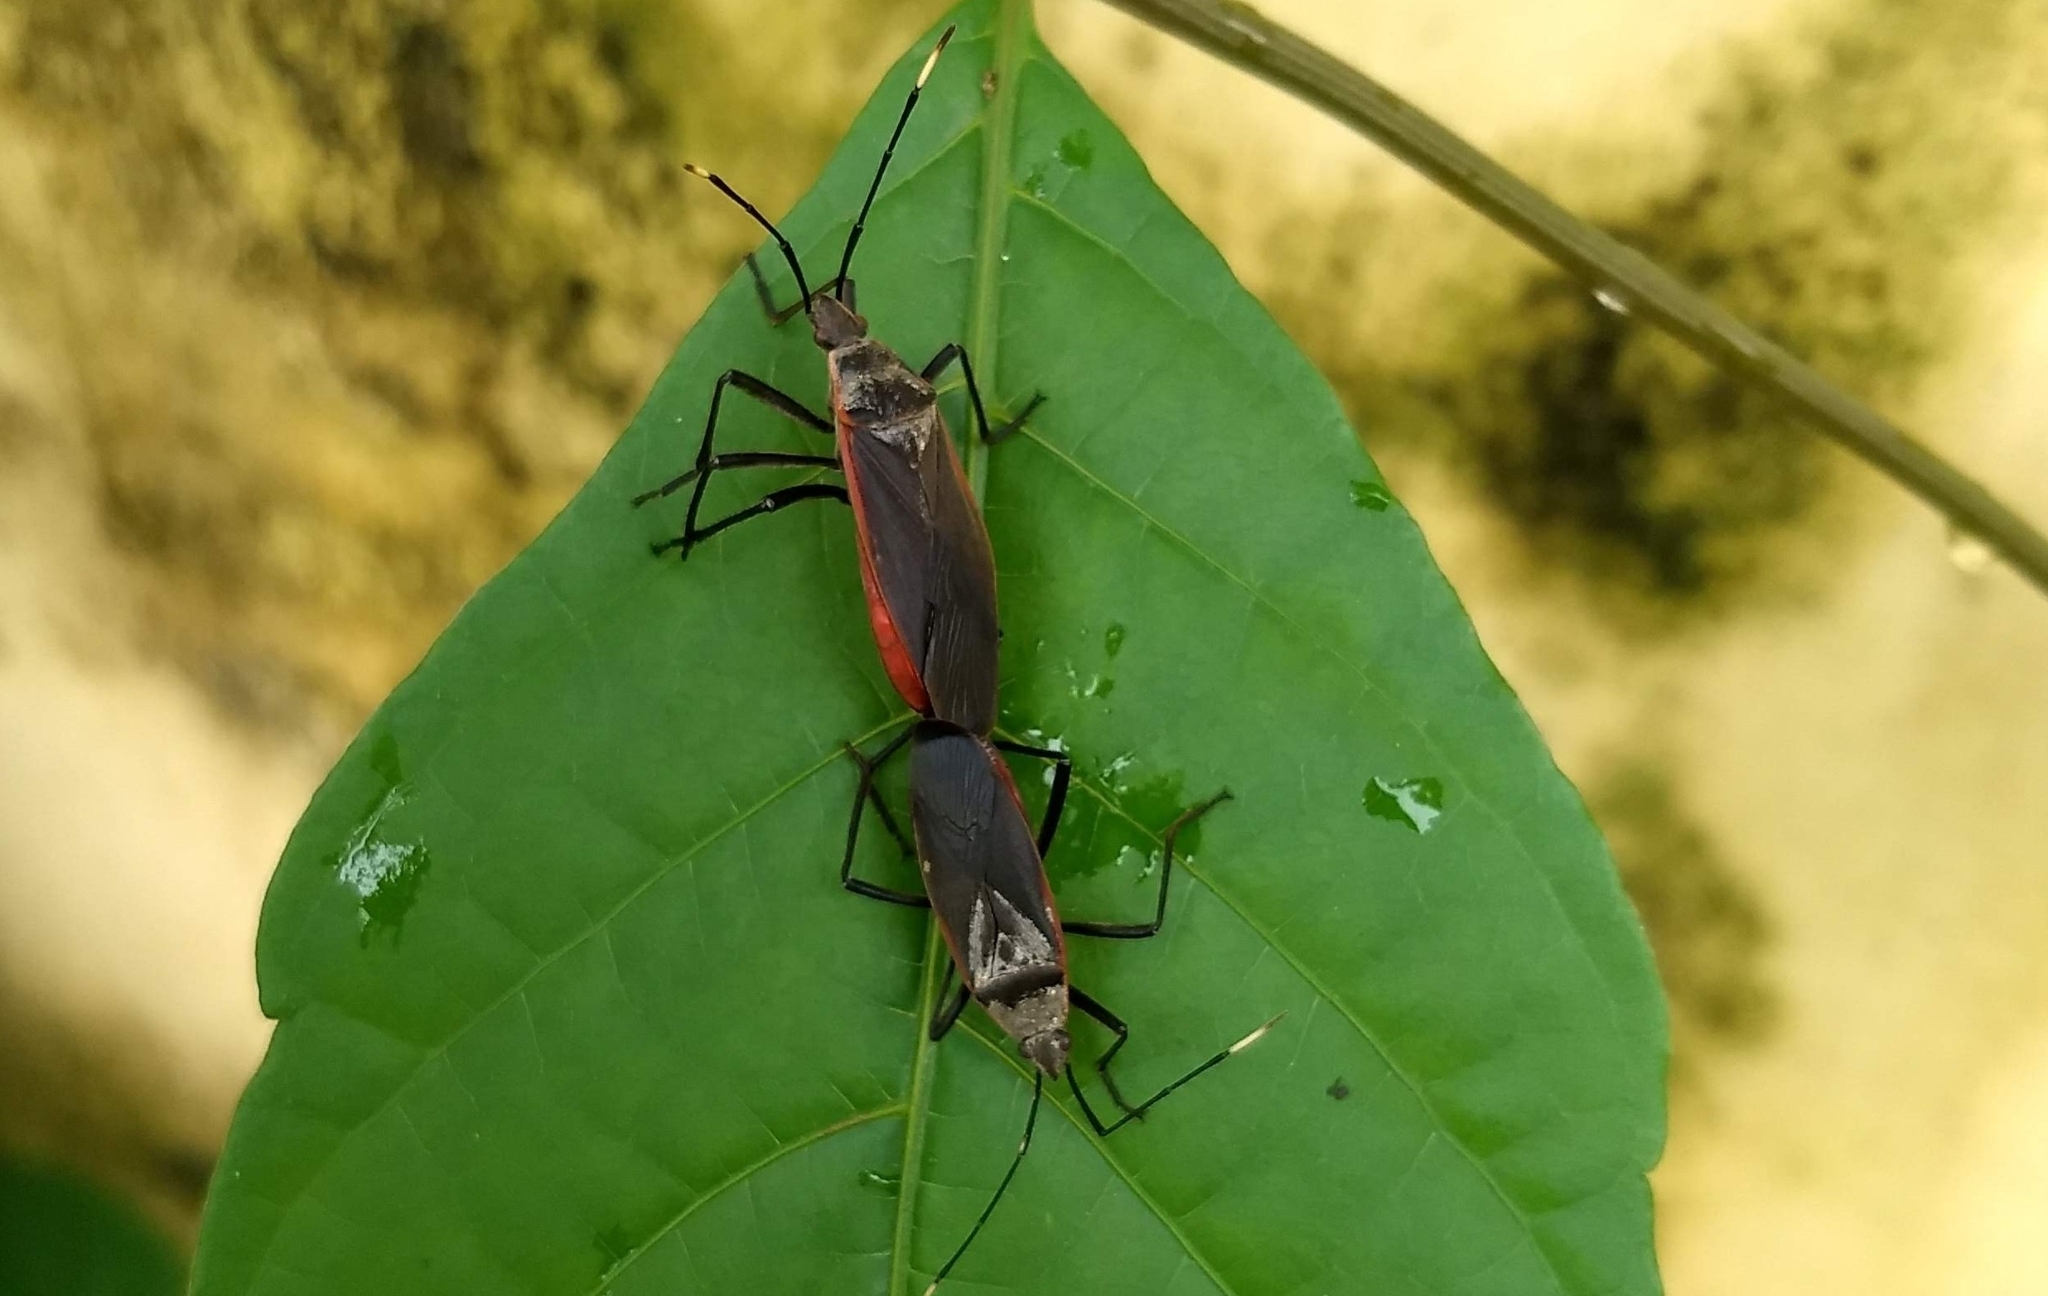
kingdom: Animalia
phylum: Arthropoda
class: Insecta
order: Hemiptera
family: Pyrrhocoridae
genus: Melamphaus
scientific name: Melamphaus
